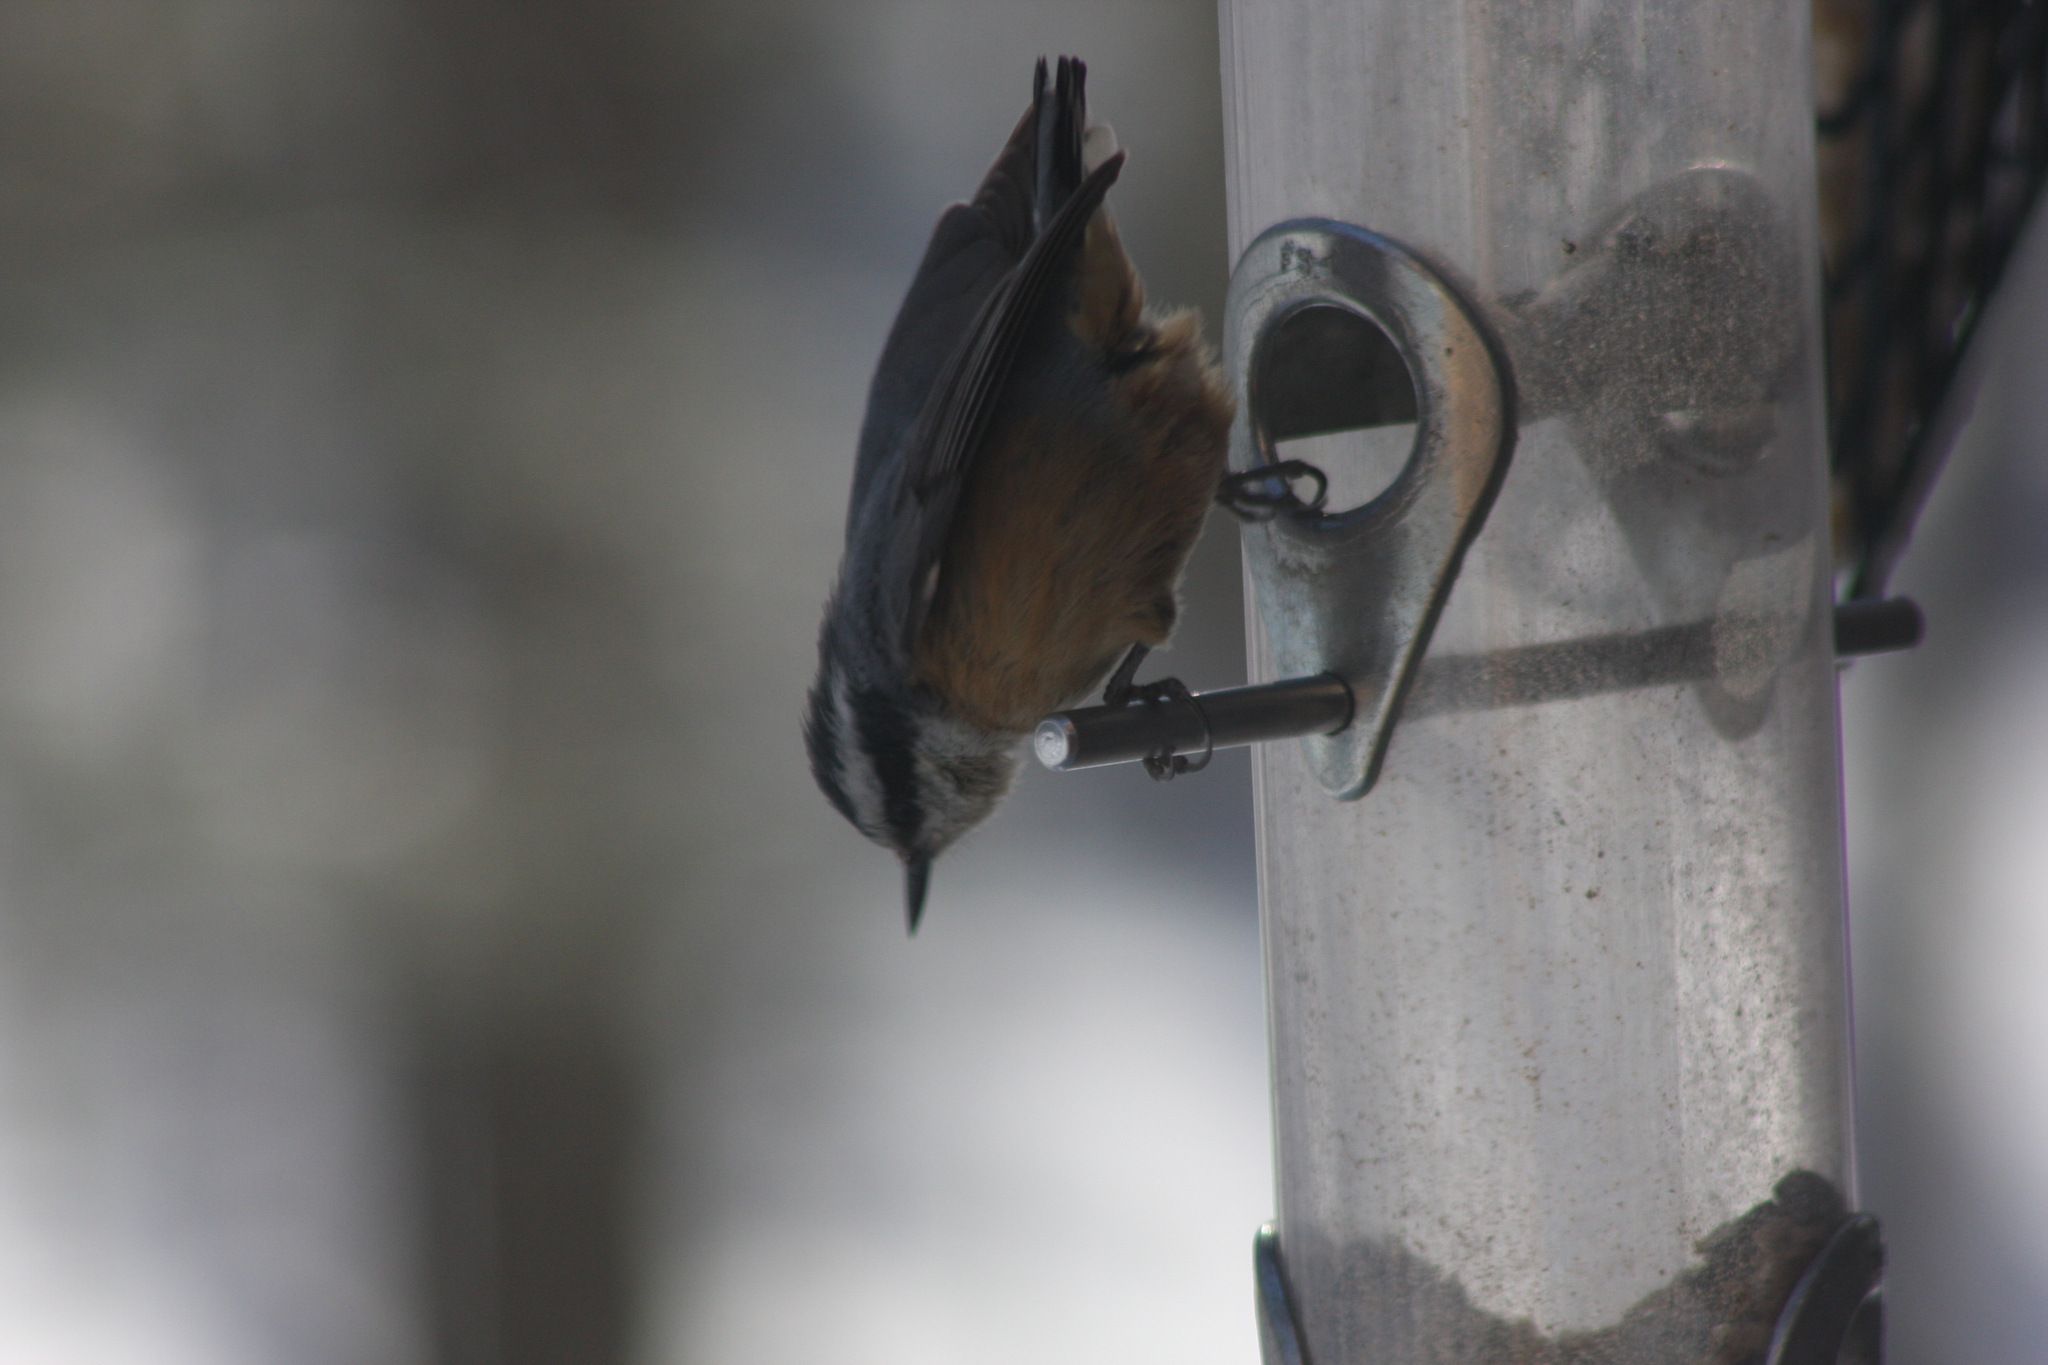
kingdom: Animalia
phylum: Chordata
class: Aves
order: Passeriformes
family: Sittidae
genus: Sitta
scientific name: Sitta canadensis
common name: Red-breasted nuthatch
